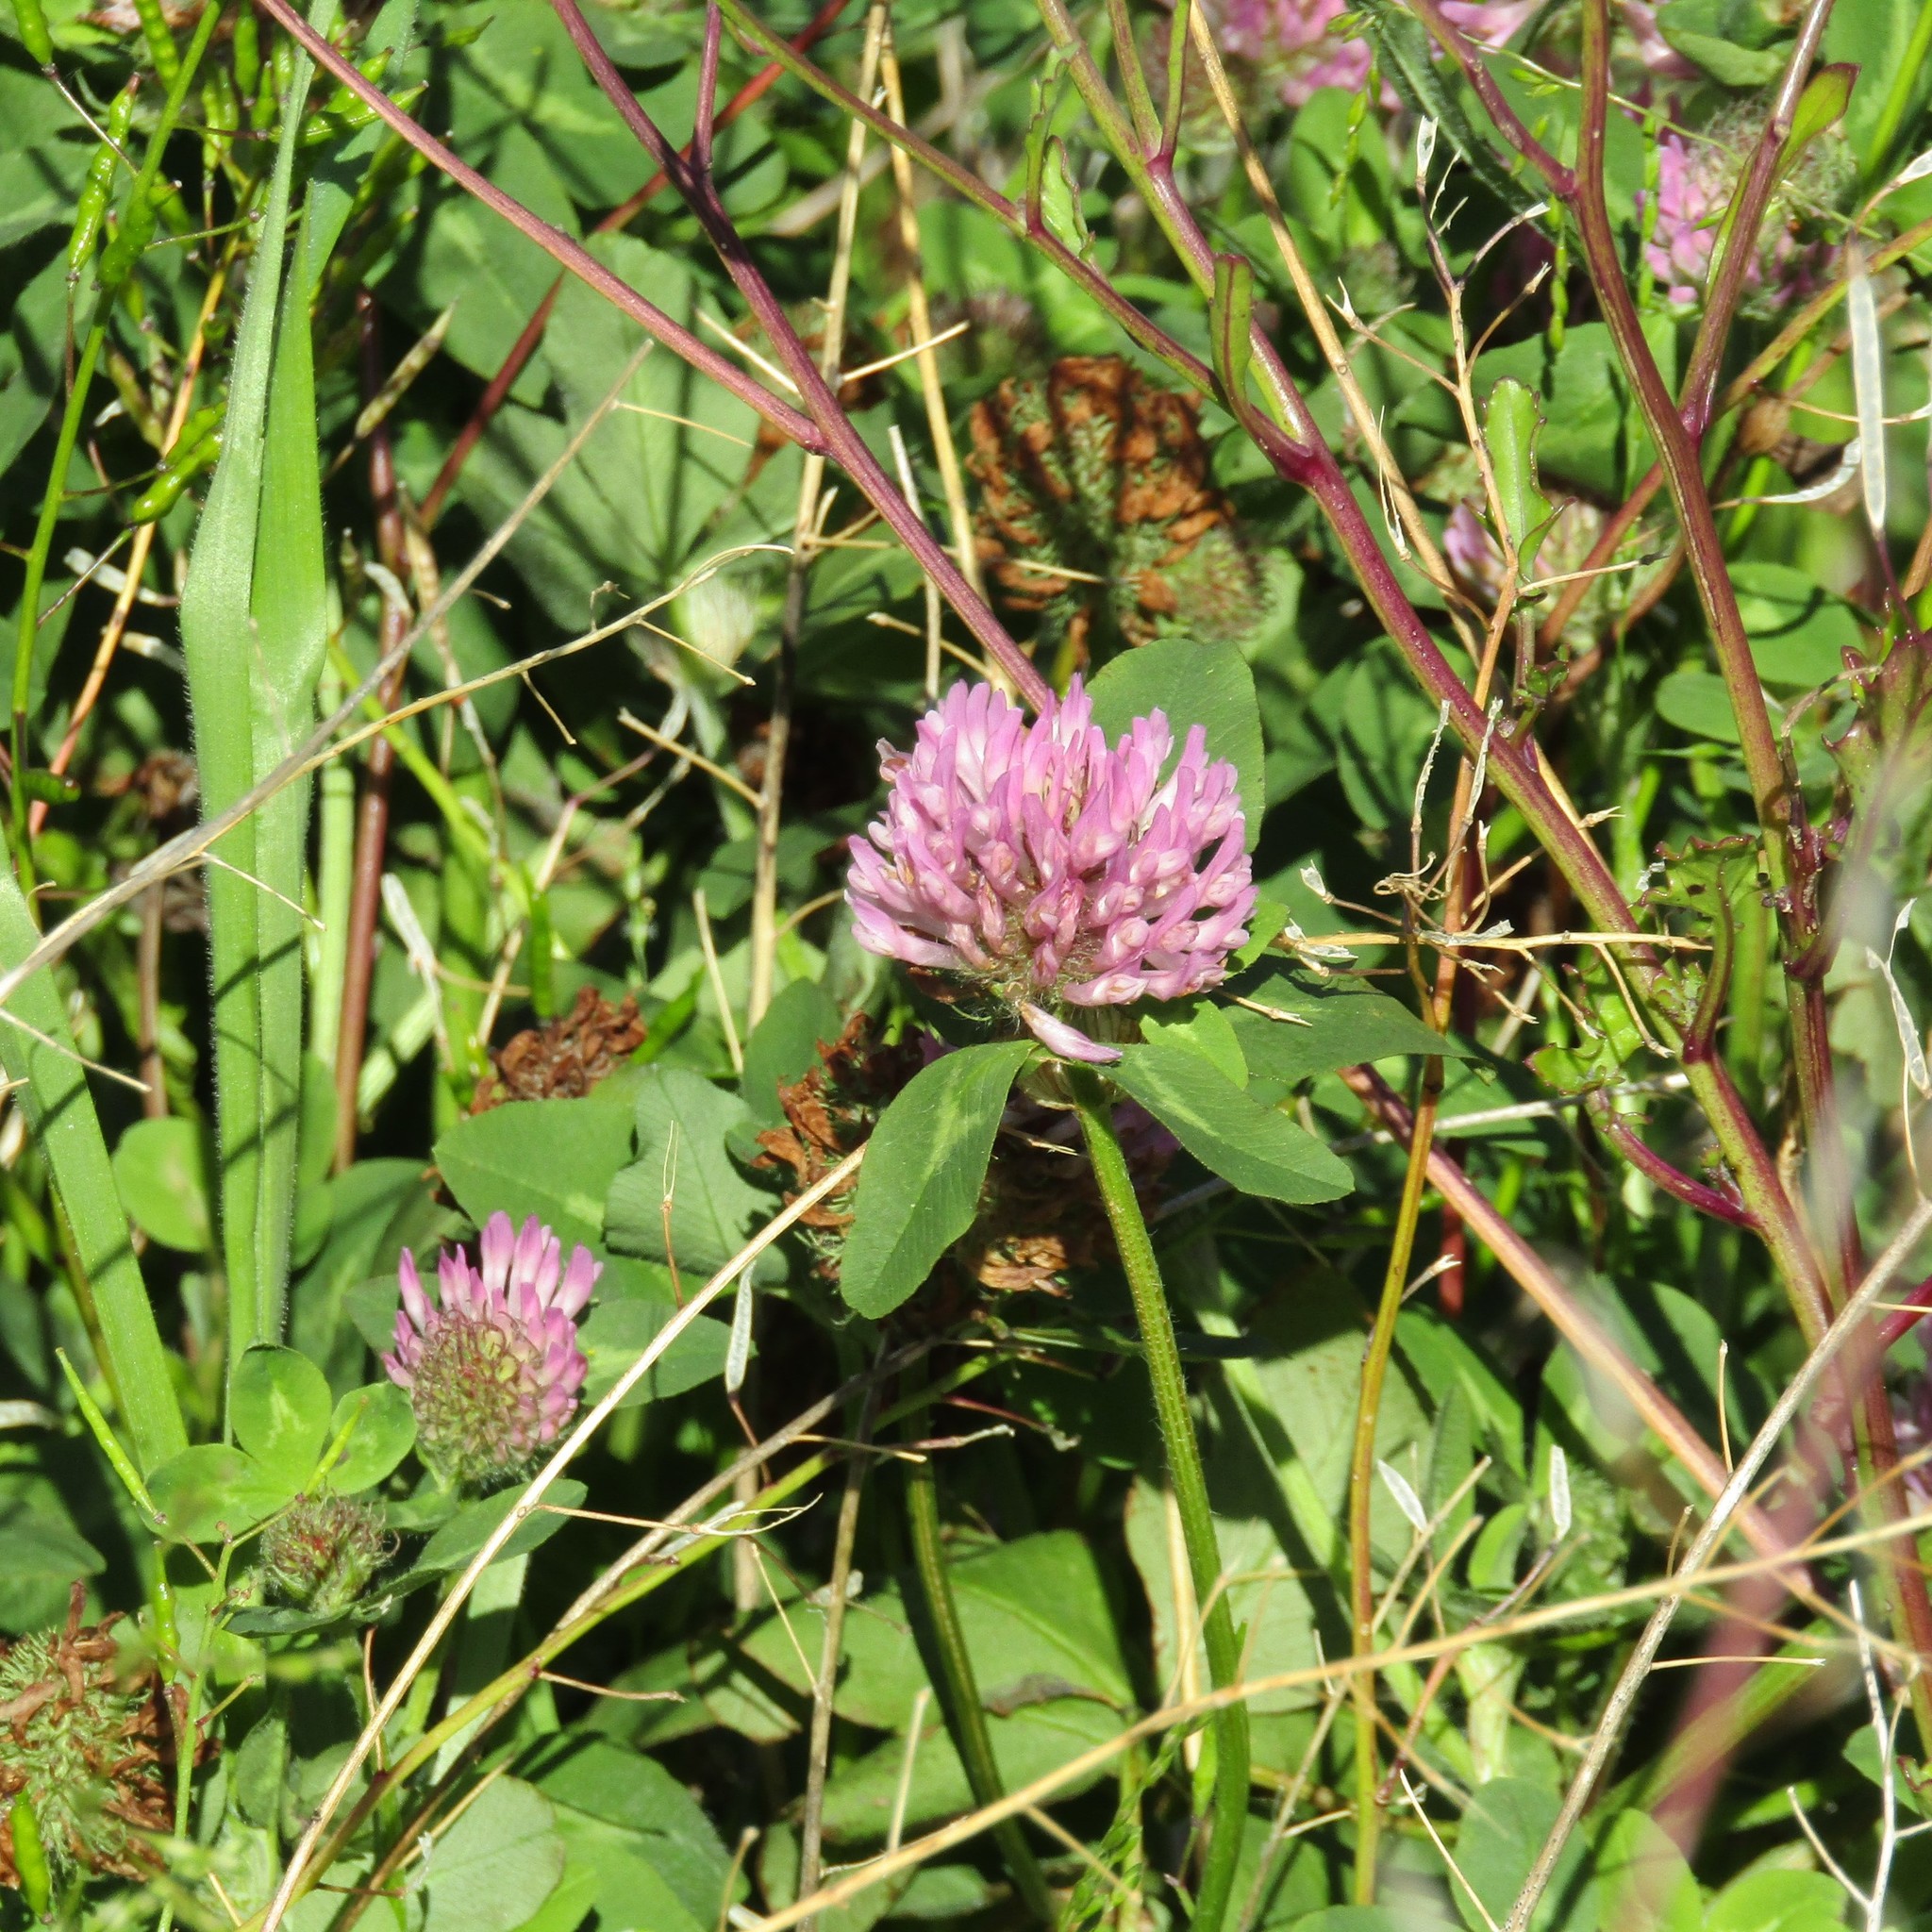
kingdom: Plantae
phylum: Tracheophyta
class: Magnoliopsida
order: Fabales
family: Fabaceae
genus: Trifolium
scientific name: Trifolium pratense
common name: Red clover
